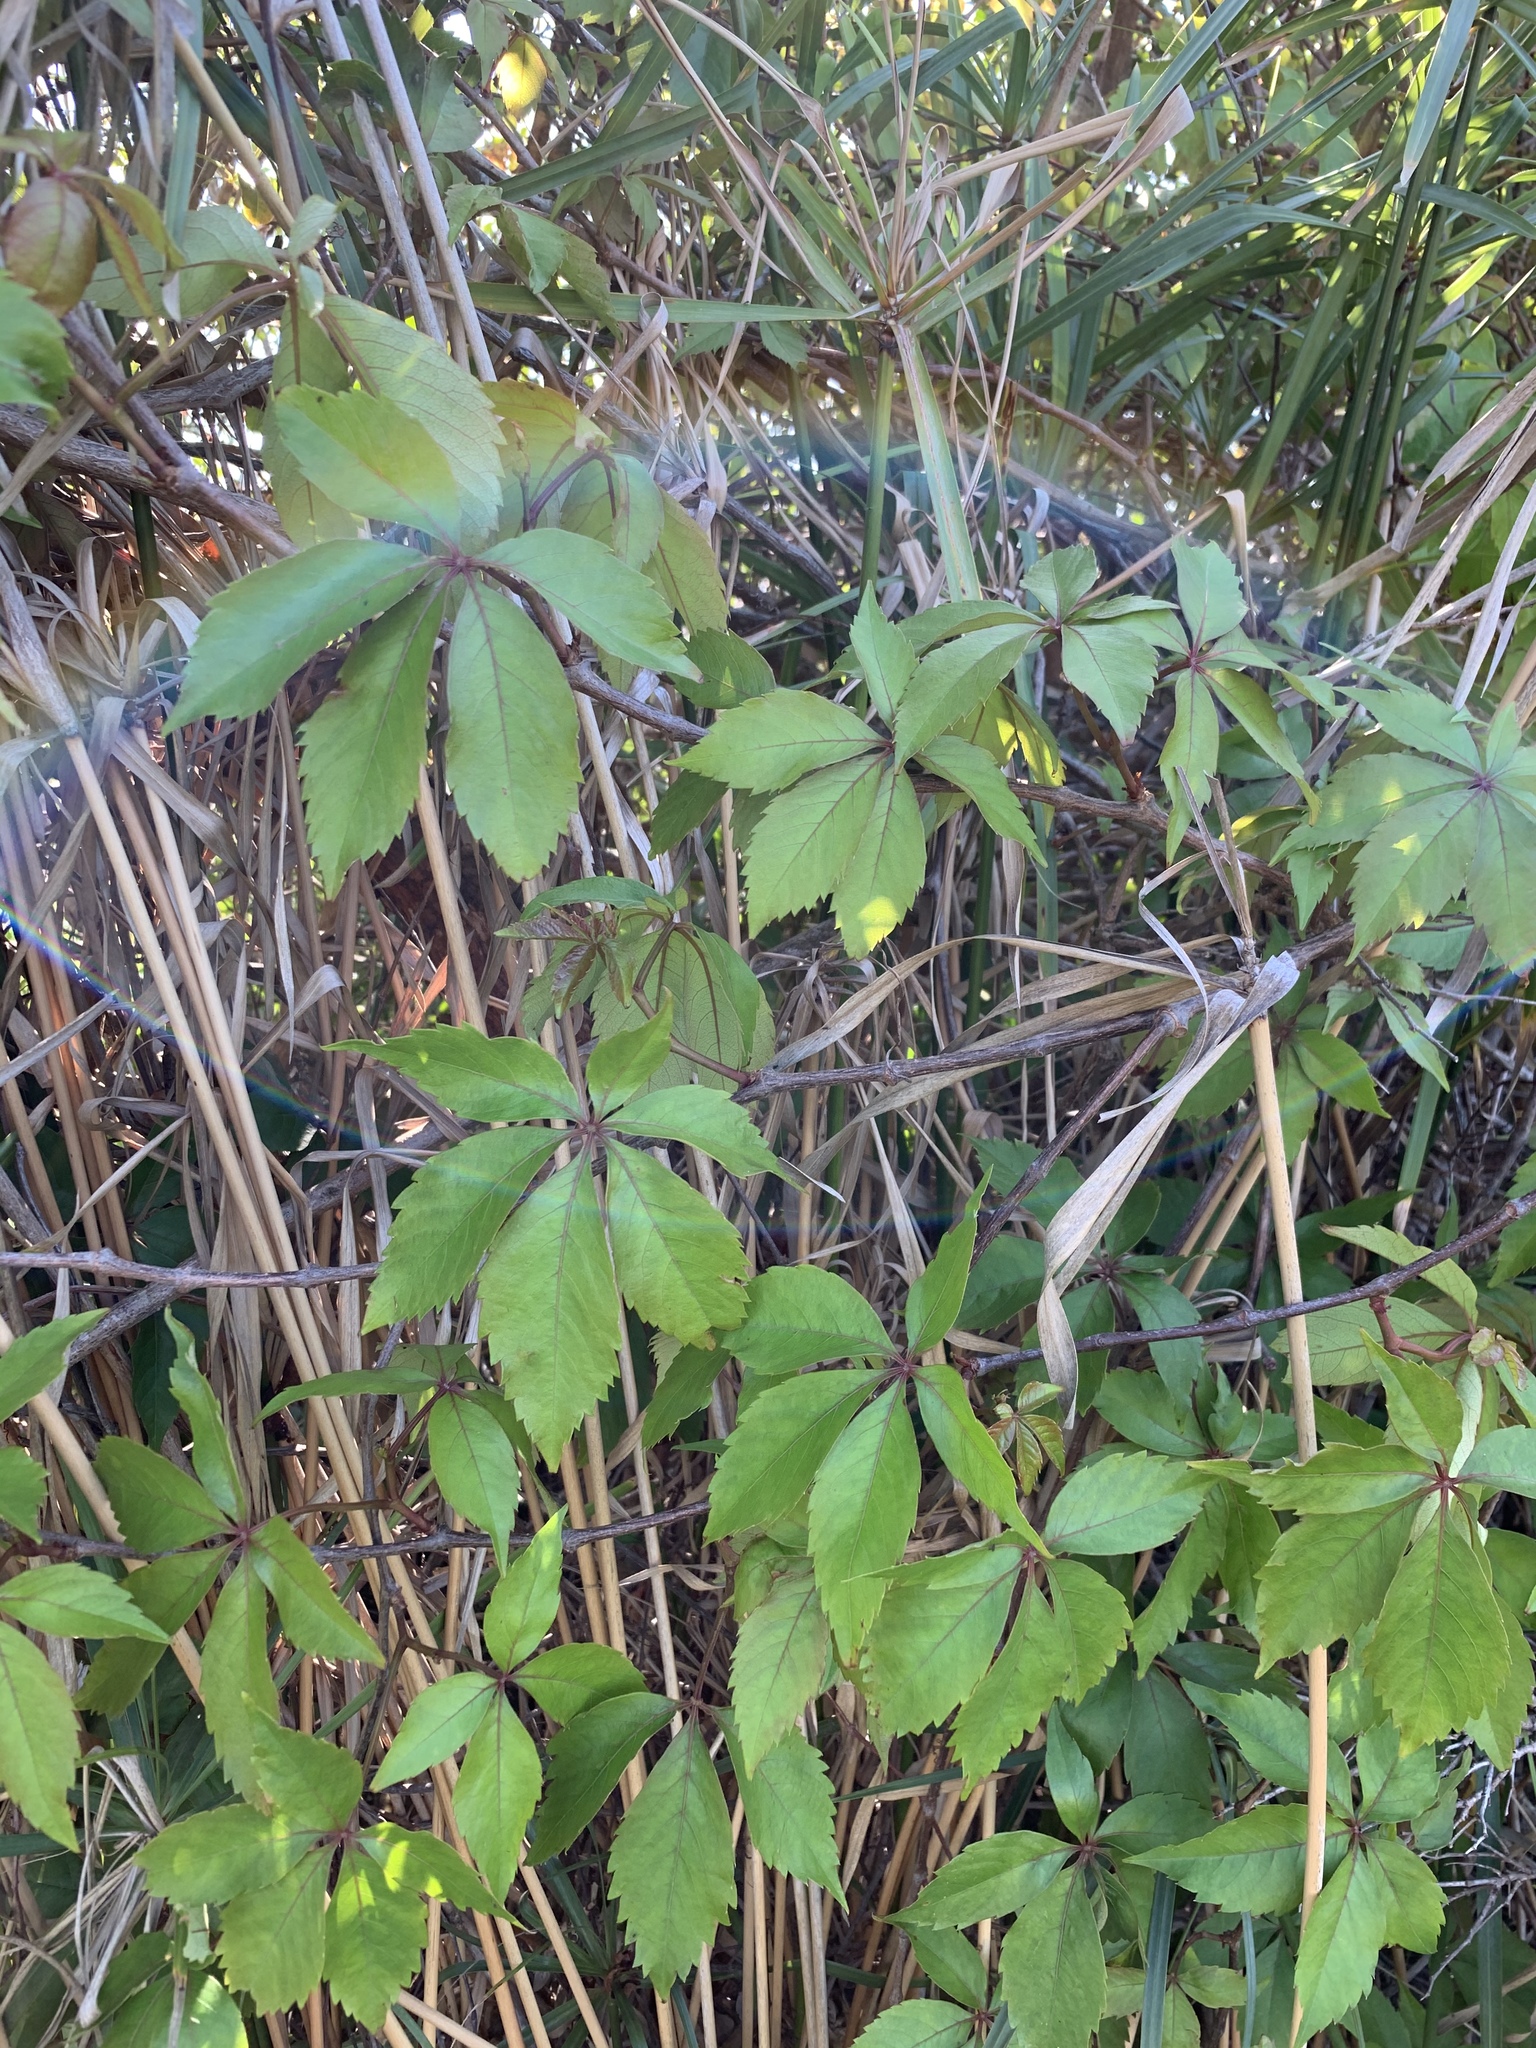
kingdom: Plantae
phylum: Tracheophyta
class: Magnoliopsida
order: Vitales
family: Vitaceae
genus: Parthenocissus
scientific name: Parthenocissus quinquefolia
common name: Virginia-creeper
